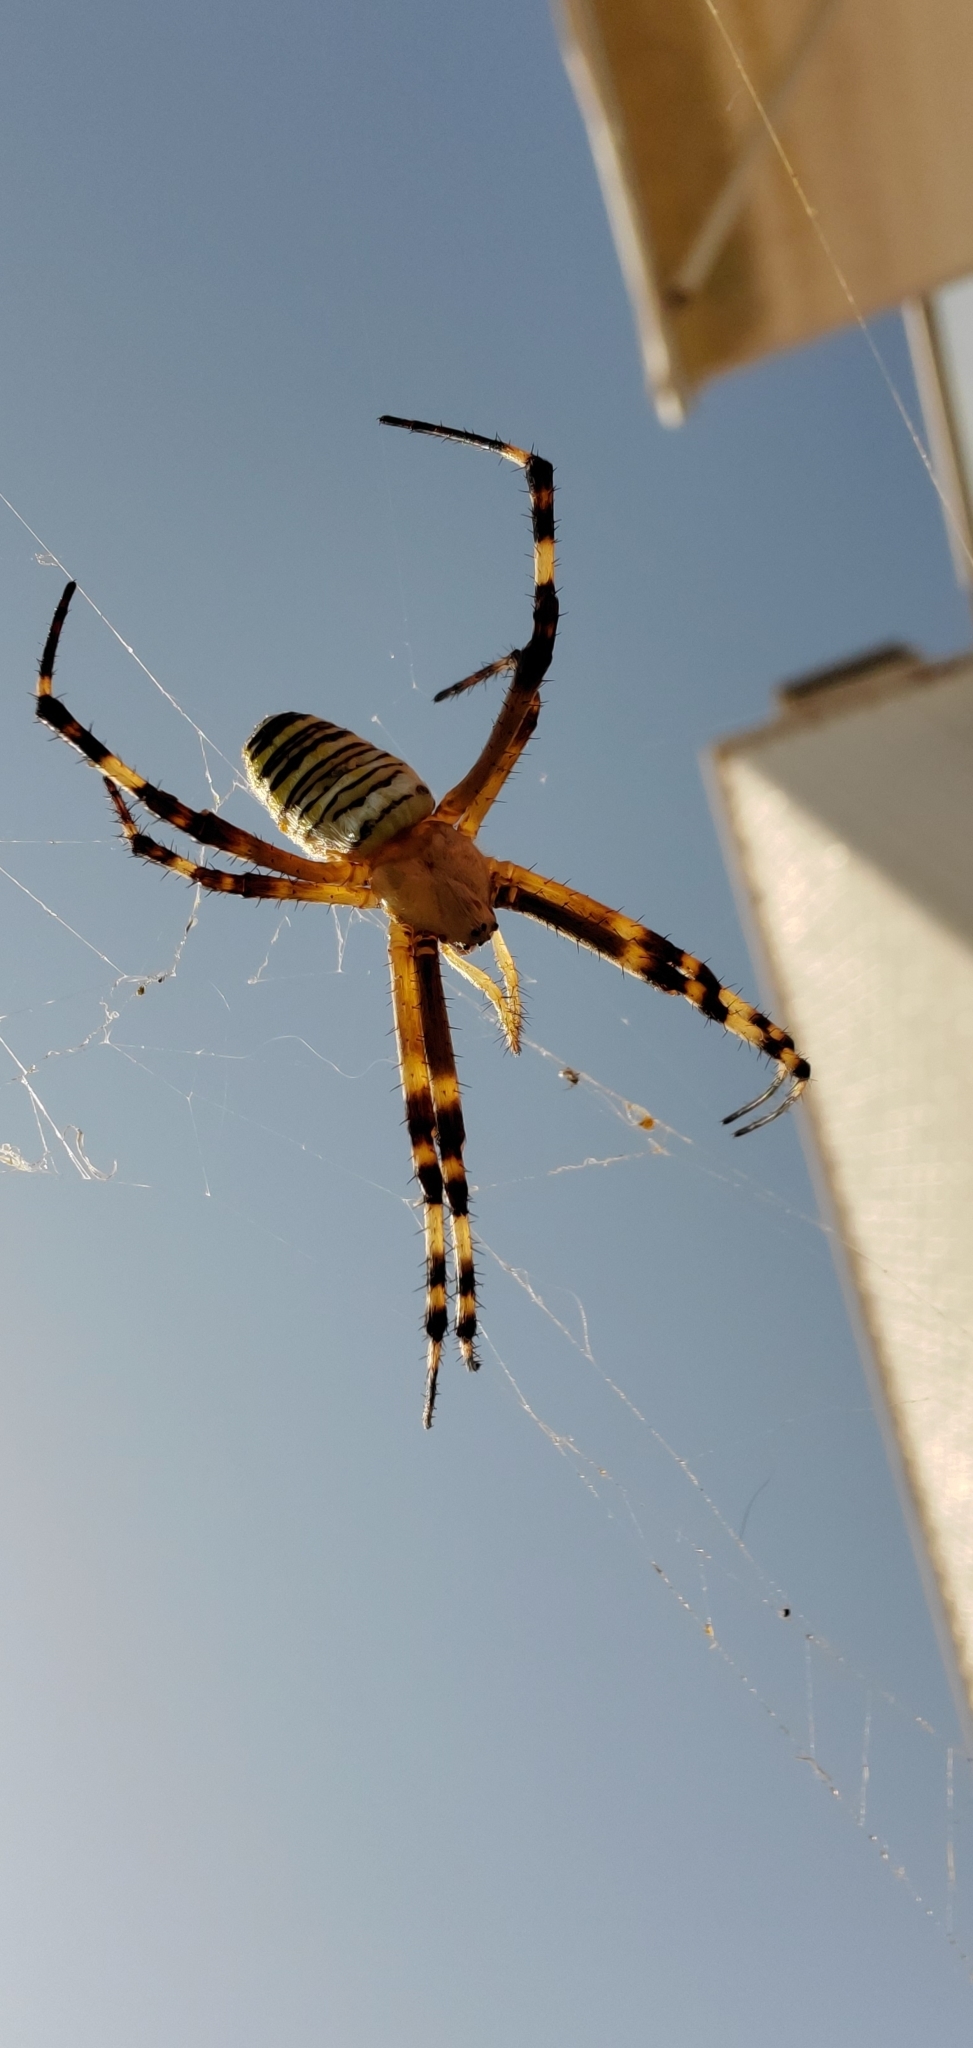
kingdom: Animalia
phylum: Arthropoda
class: Arachnida
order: Araneae
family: Araneidae
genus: Argiope
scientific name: Argiope bruennichi
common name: Wasp spider
